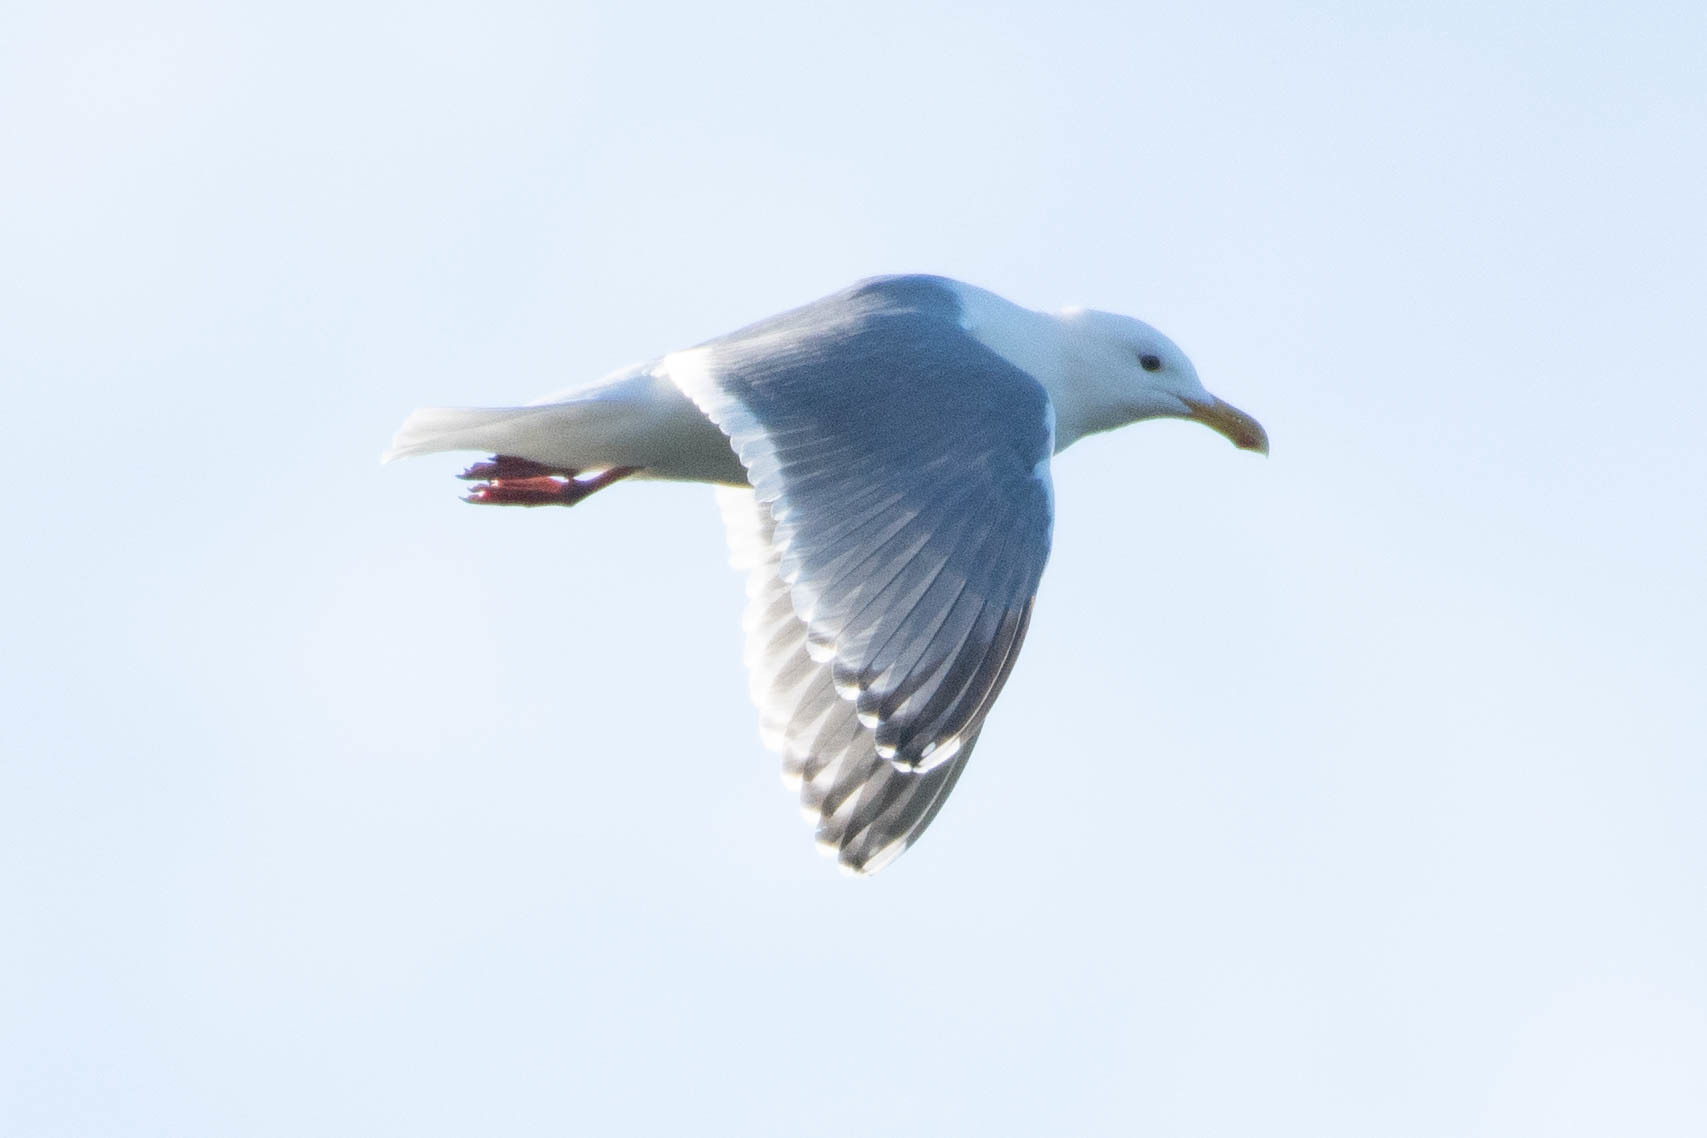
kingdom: Animalia
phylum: Chordata
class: Aves
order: Charadriiformes
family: Laridae
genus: Larus
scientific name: Larus
